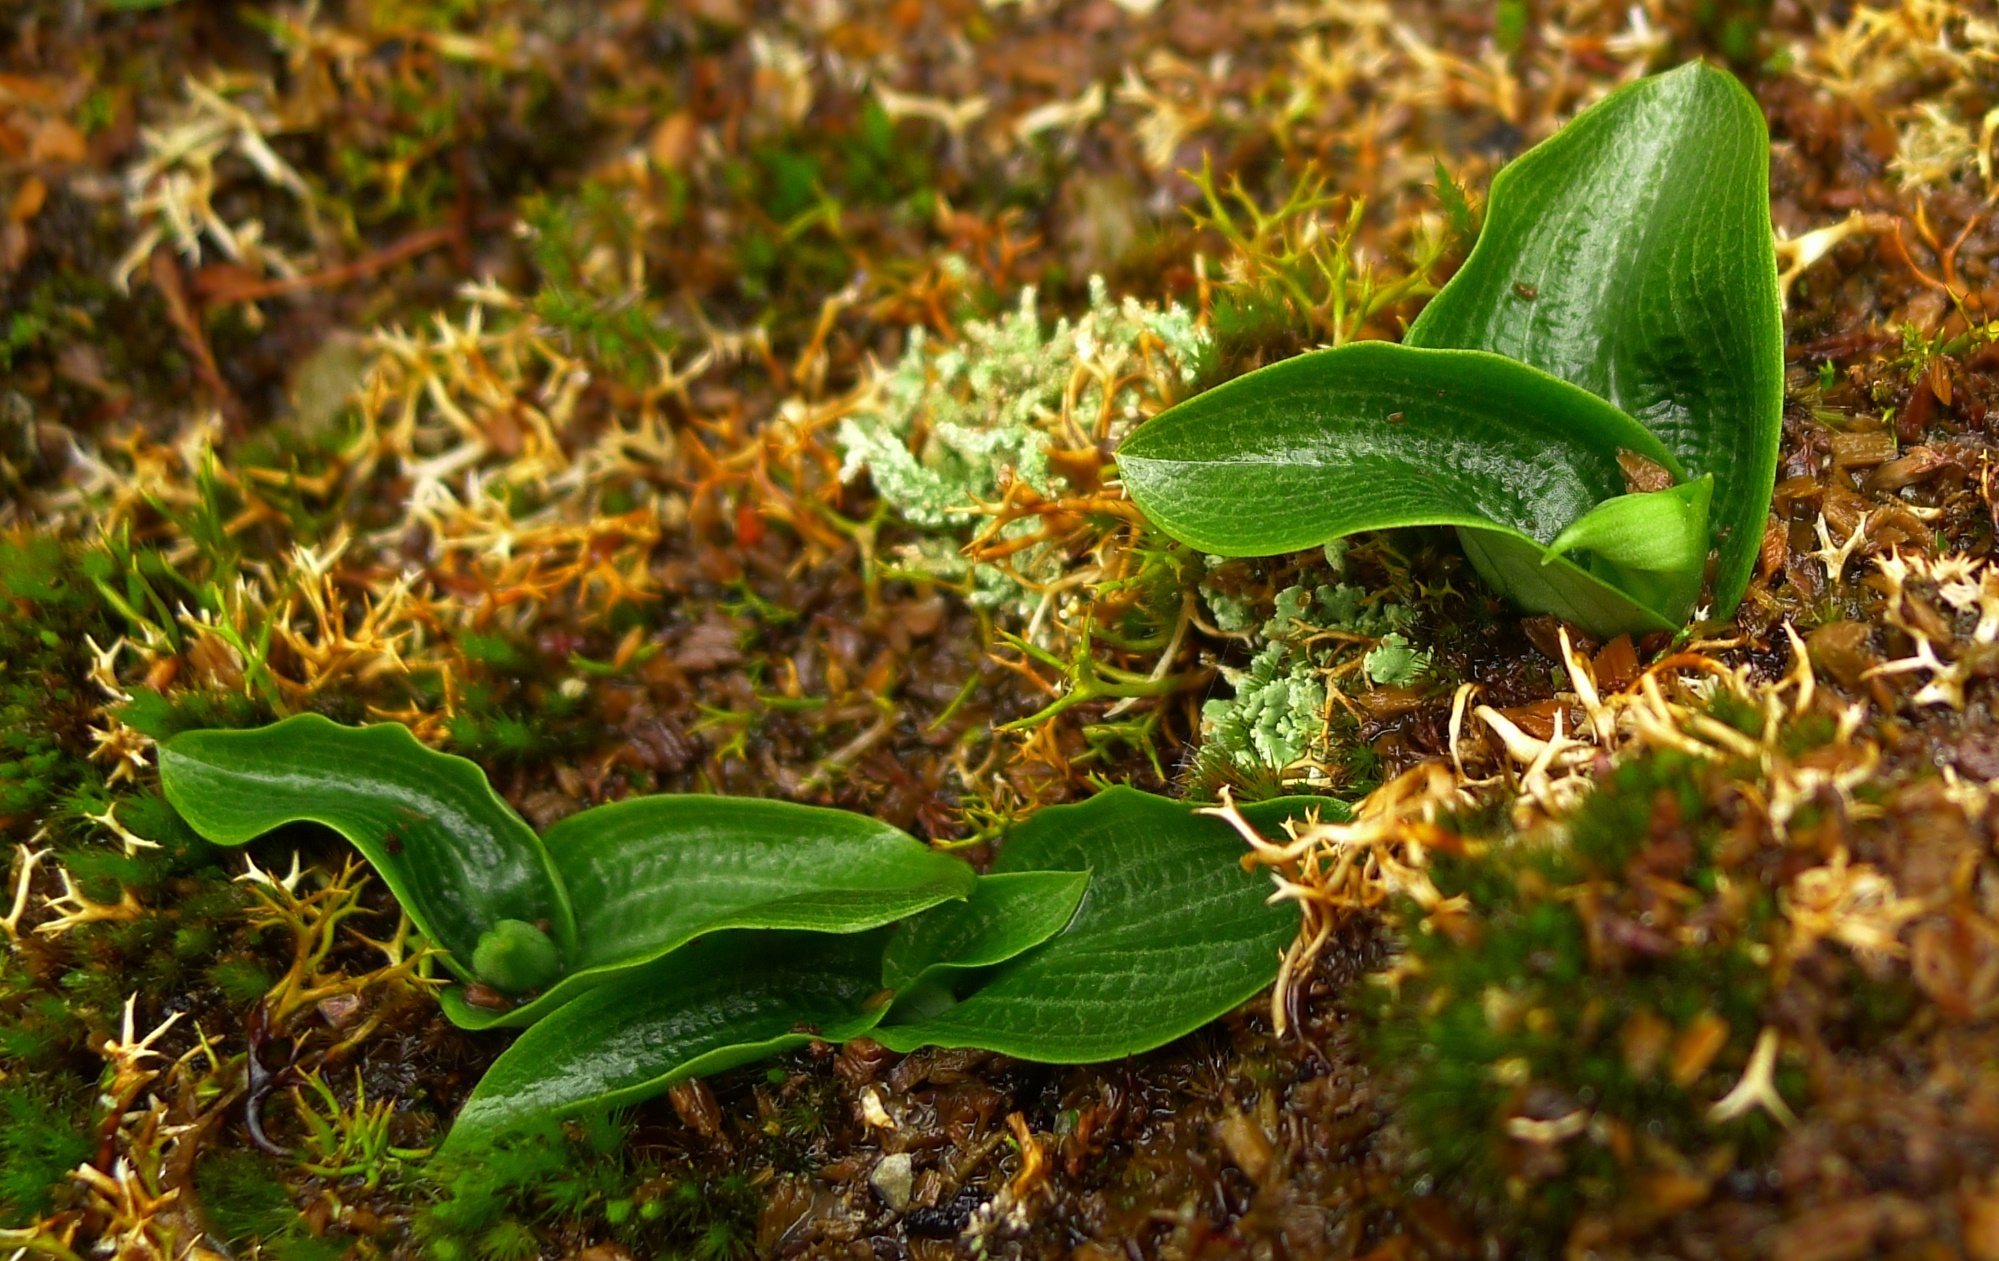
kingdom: Plantae
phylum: Tracheophyta
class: Liliopsida
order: Asparagales
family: Orchidaceae
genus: Chiloglottis
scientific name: Chiloglottis cornuta
